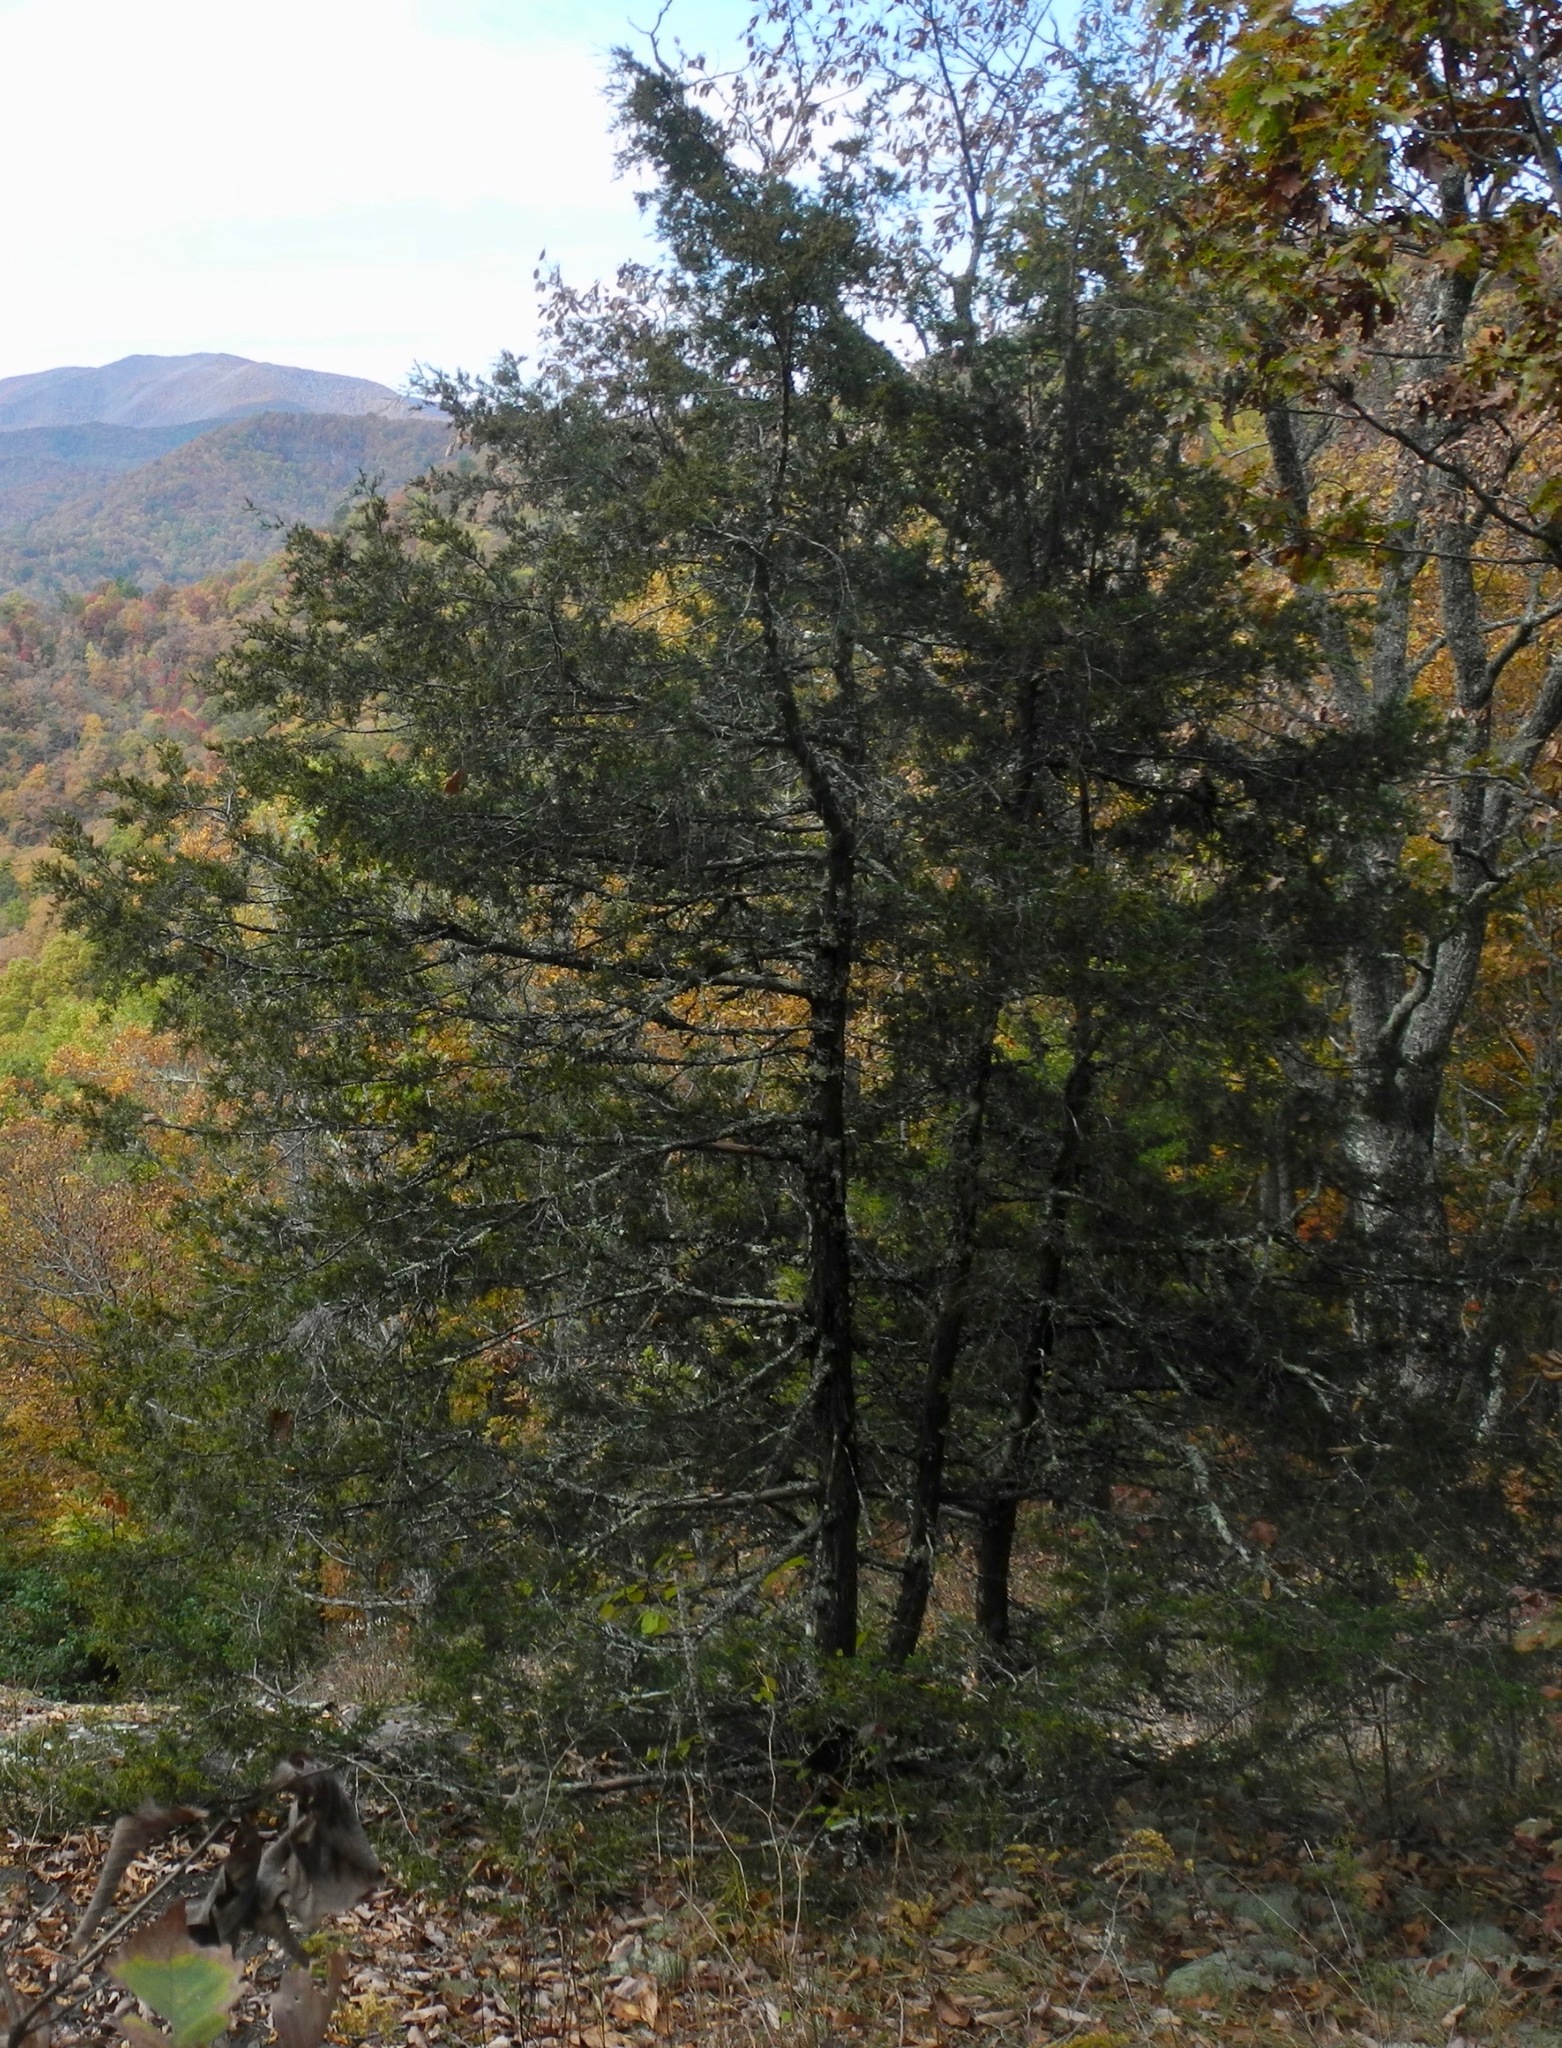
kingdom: Plantae
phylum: Tracheophyta
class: Pinopsida
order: Pinales
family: Cupressaceae
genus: Juniperus
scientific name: Juniperus virginiana
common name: Red juniper
